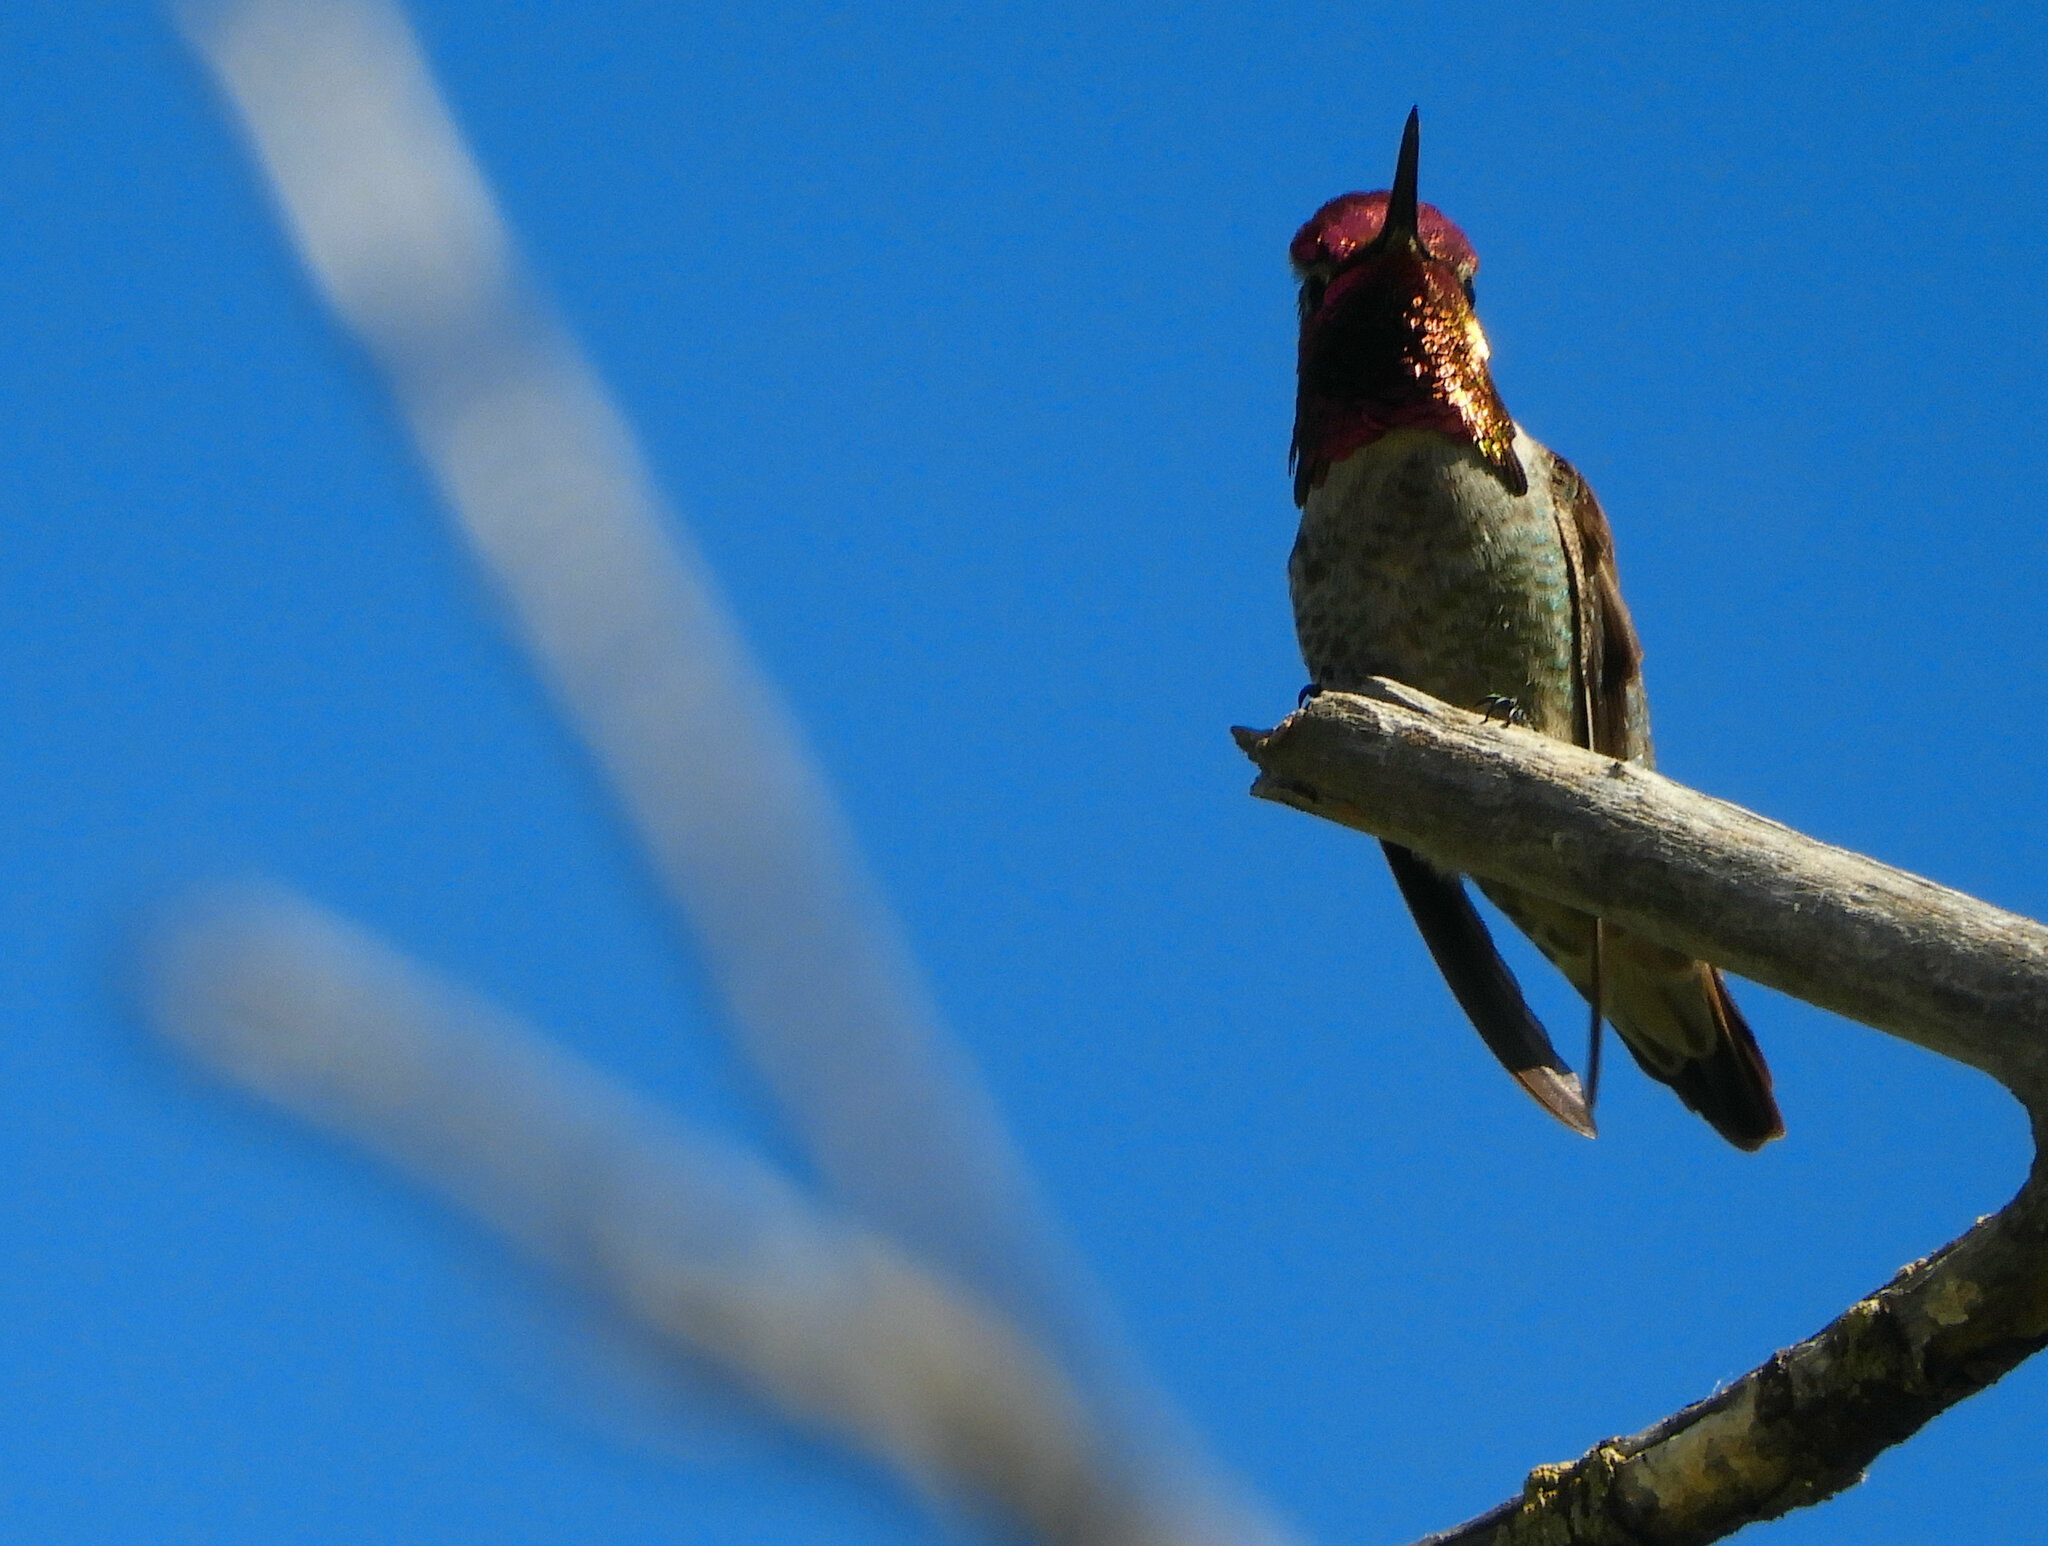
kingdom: Animalia
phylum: Chordata
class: Aves
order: Apodiformes
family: Trochilidae
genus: Calypte
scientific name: Calypte anna
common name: Anna's hummingbird
